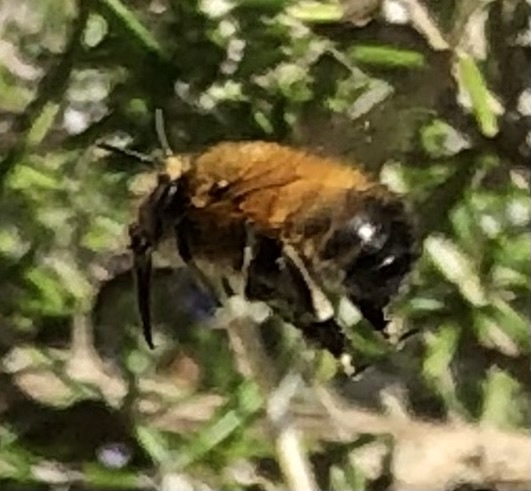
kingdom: Animalia
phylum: Arthropoda
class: Insecta
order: Hymenoptera
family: Apidae
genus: Anthophora
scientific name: Anthophora plumipes
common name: Hairy-footed flower bee
